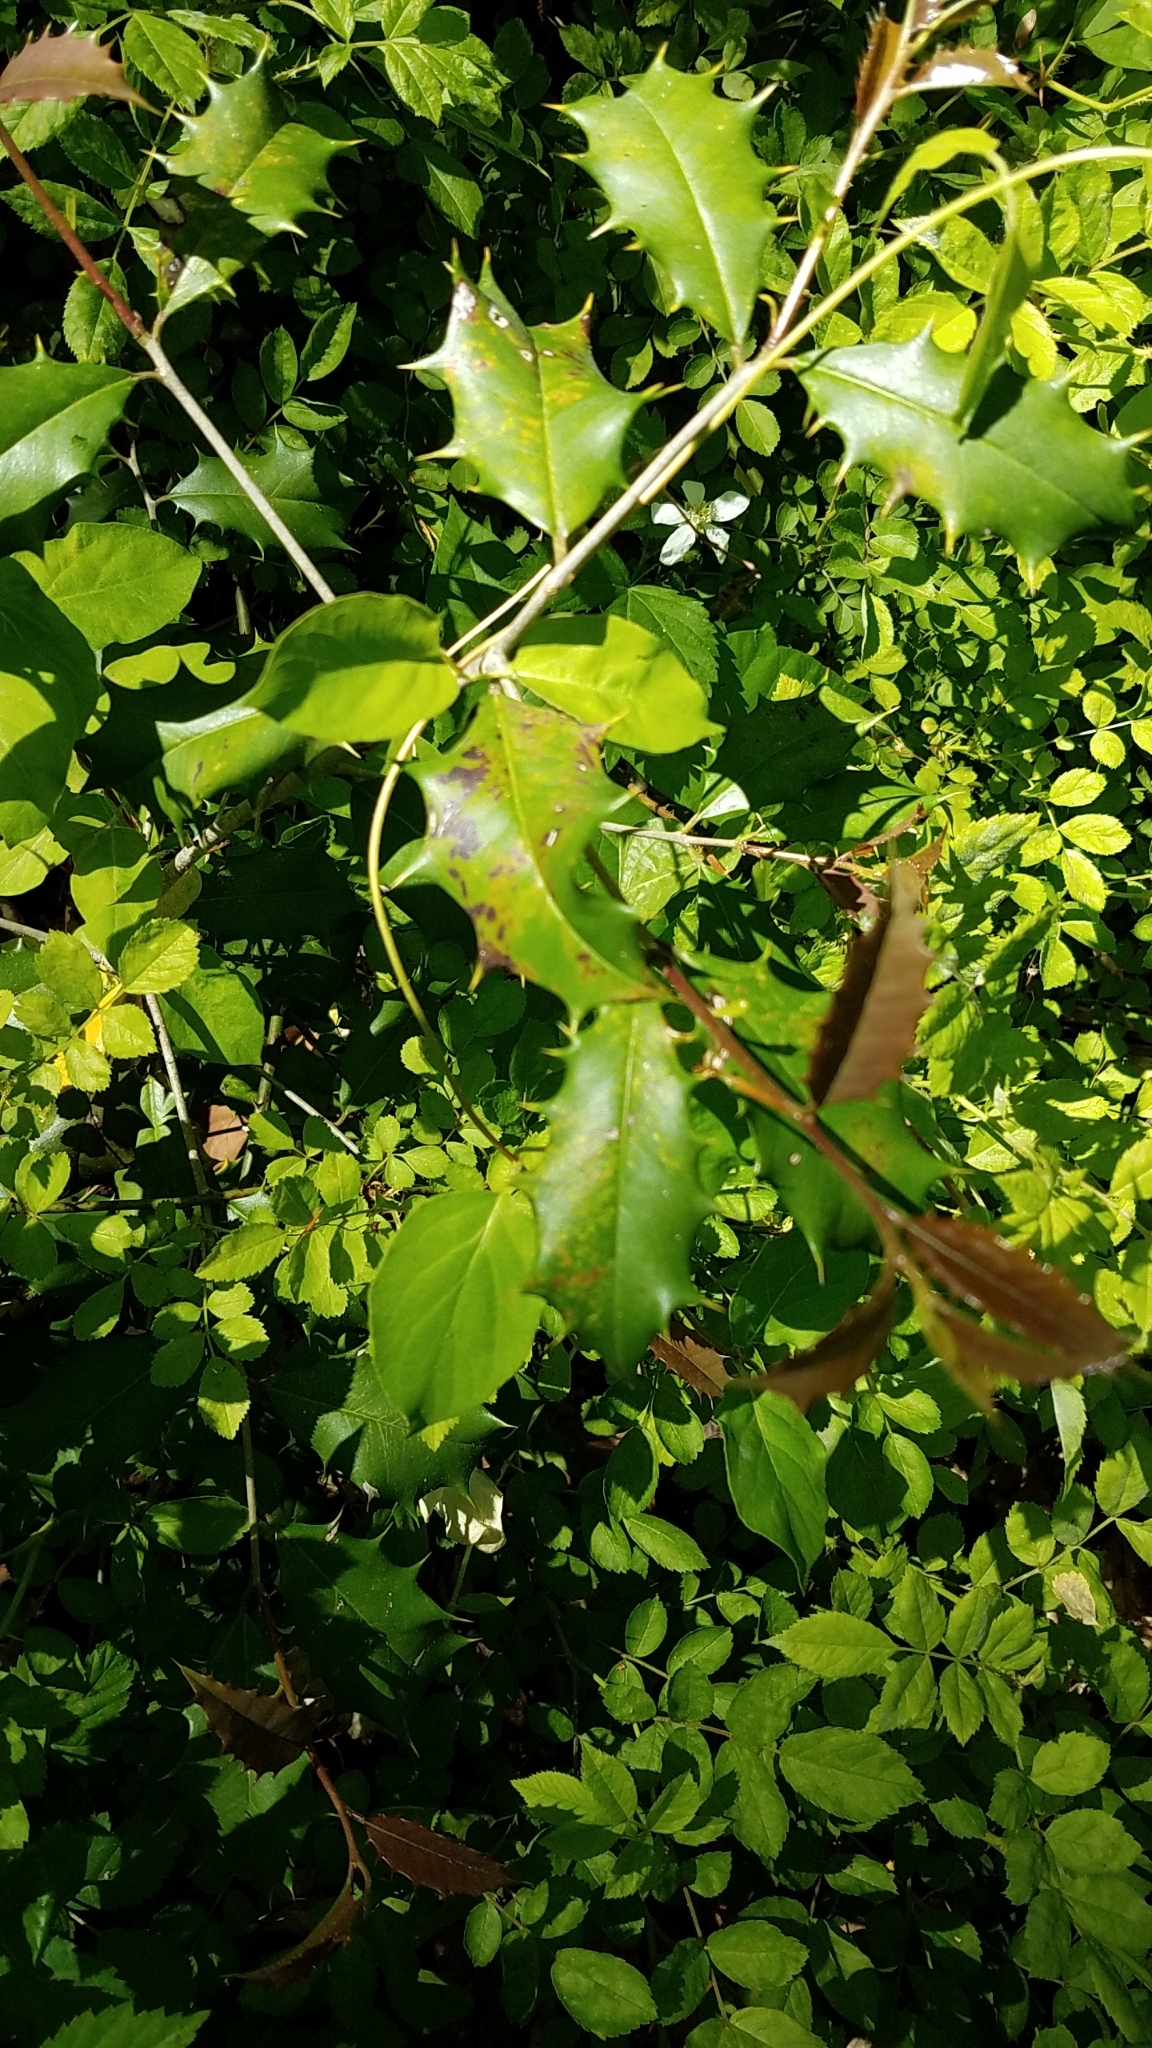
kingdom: Plantae
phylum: Tracheophyta
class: Magnoliopsida
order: Aquifoliales
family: Aquifoliaceae
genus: Ilex
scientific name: Ilex opaca
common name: American holly
